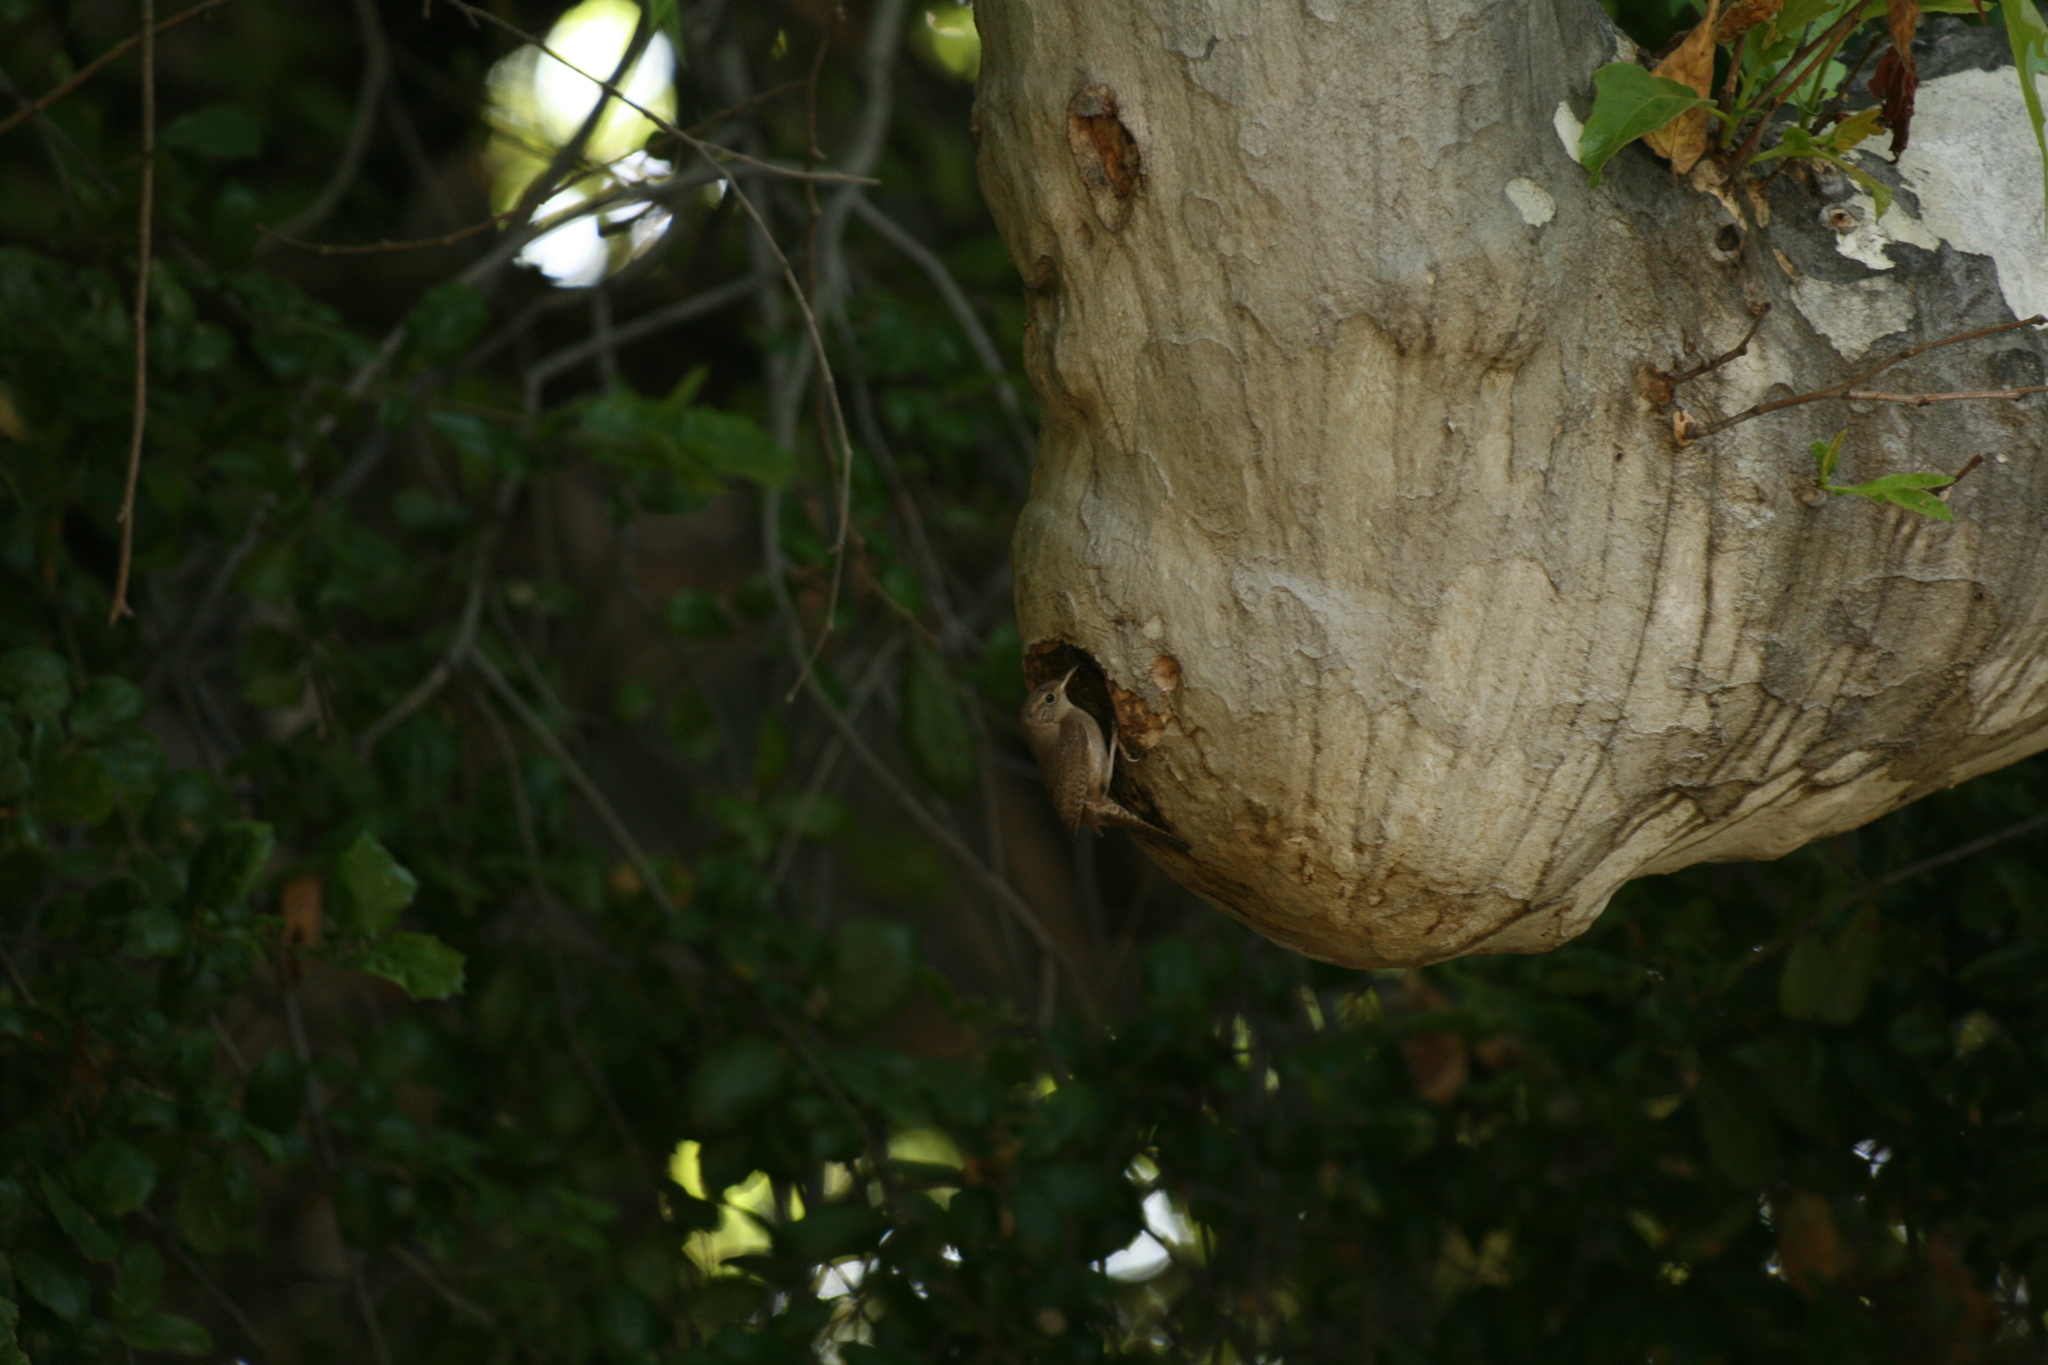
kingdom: Animalia
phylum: Chordata
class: Aves
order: Passeriformes
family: Troglodytidae
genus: Troglodytes
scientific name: Troglodytes aedon
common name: House wren
